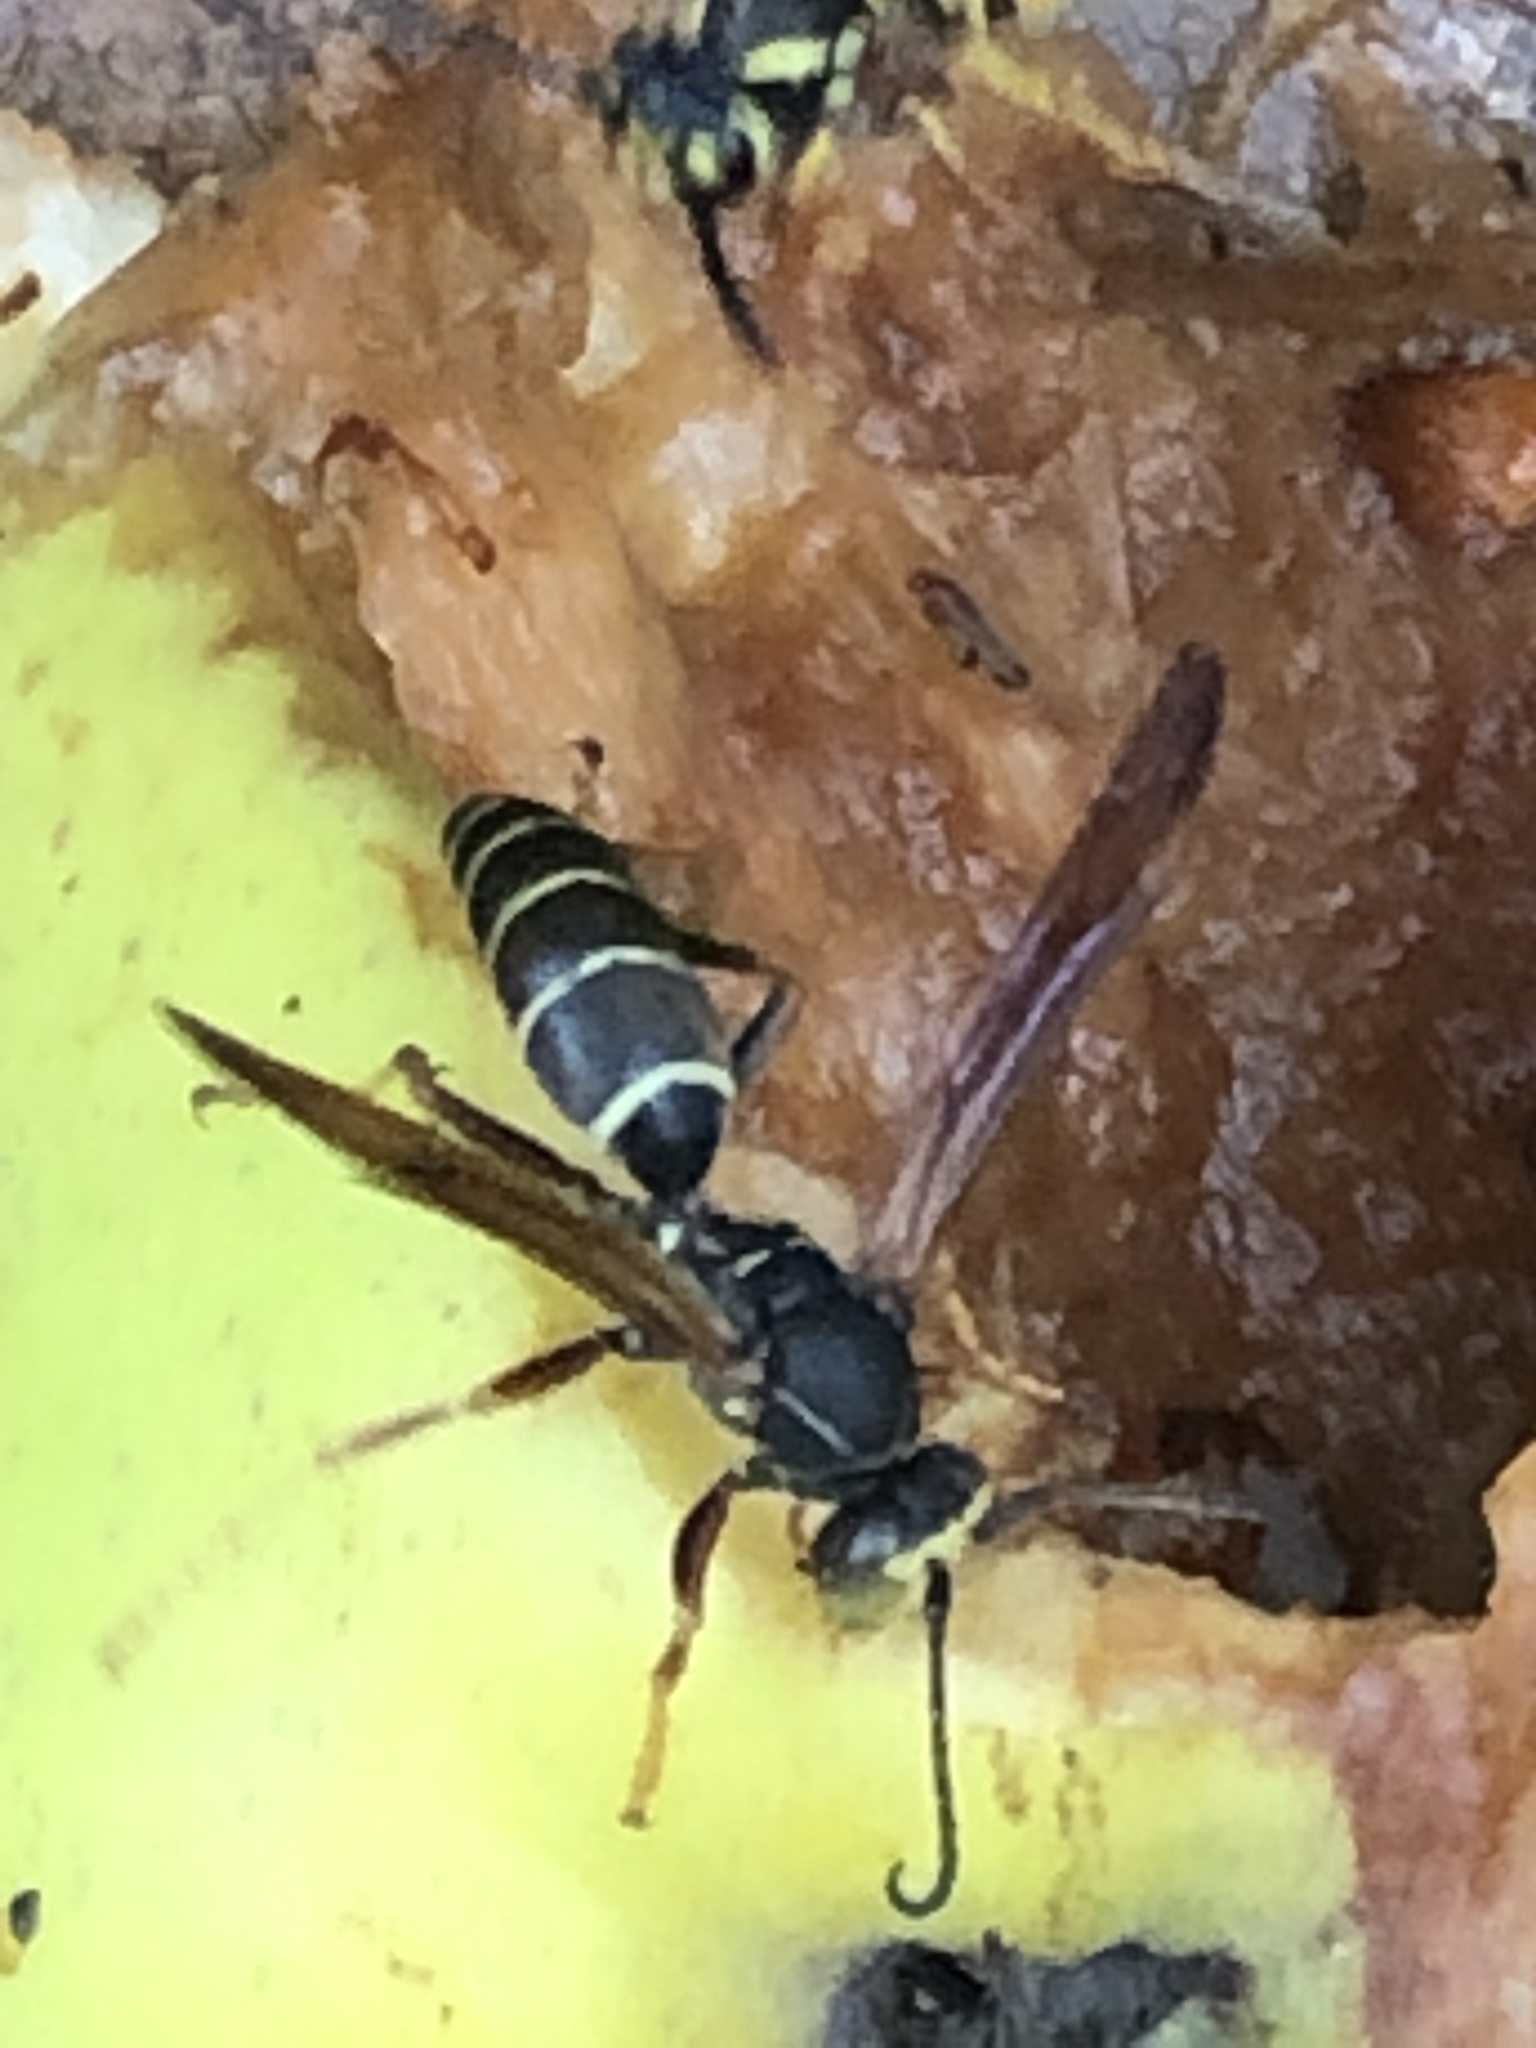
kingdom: Animalia
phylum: Arthropoda
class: Insecta
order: Hymenoptera
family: Eumenidae
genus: Polistes
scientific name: Polistes fuscatus
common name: Dark paper wasp
